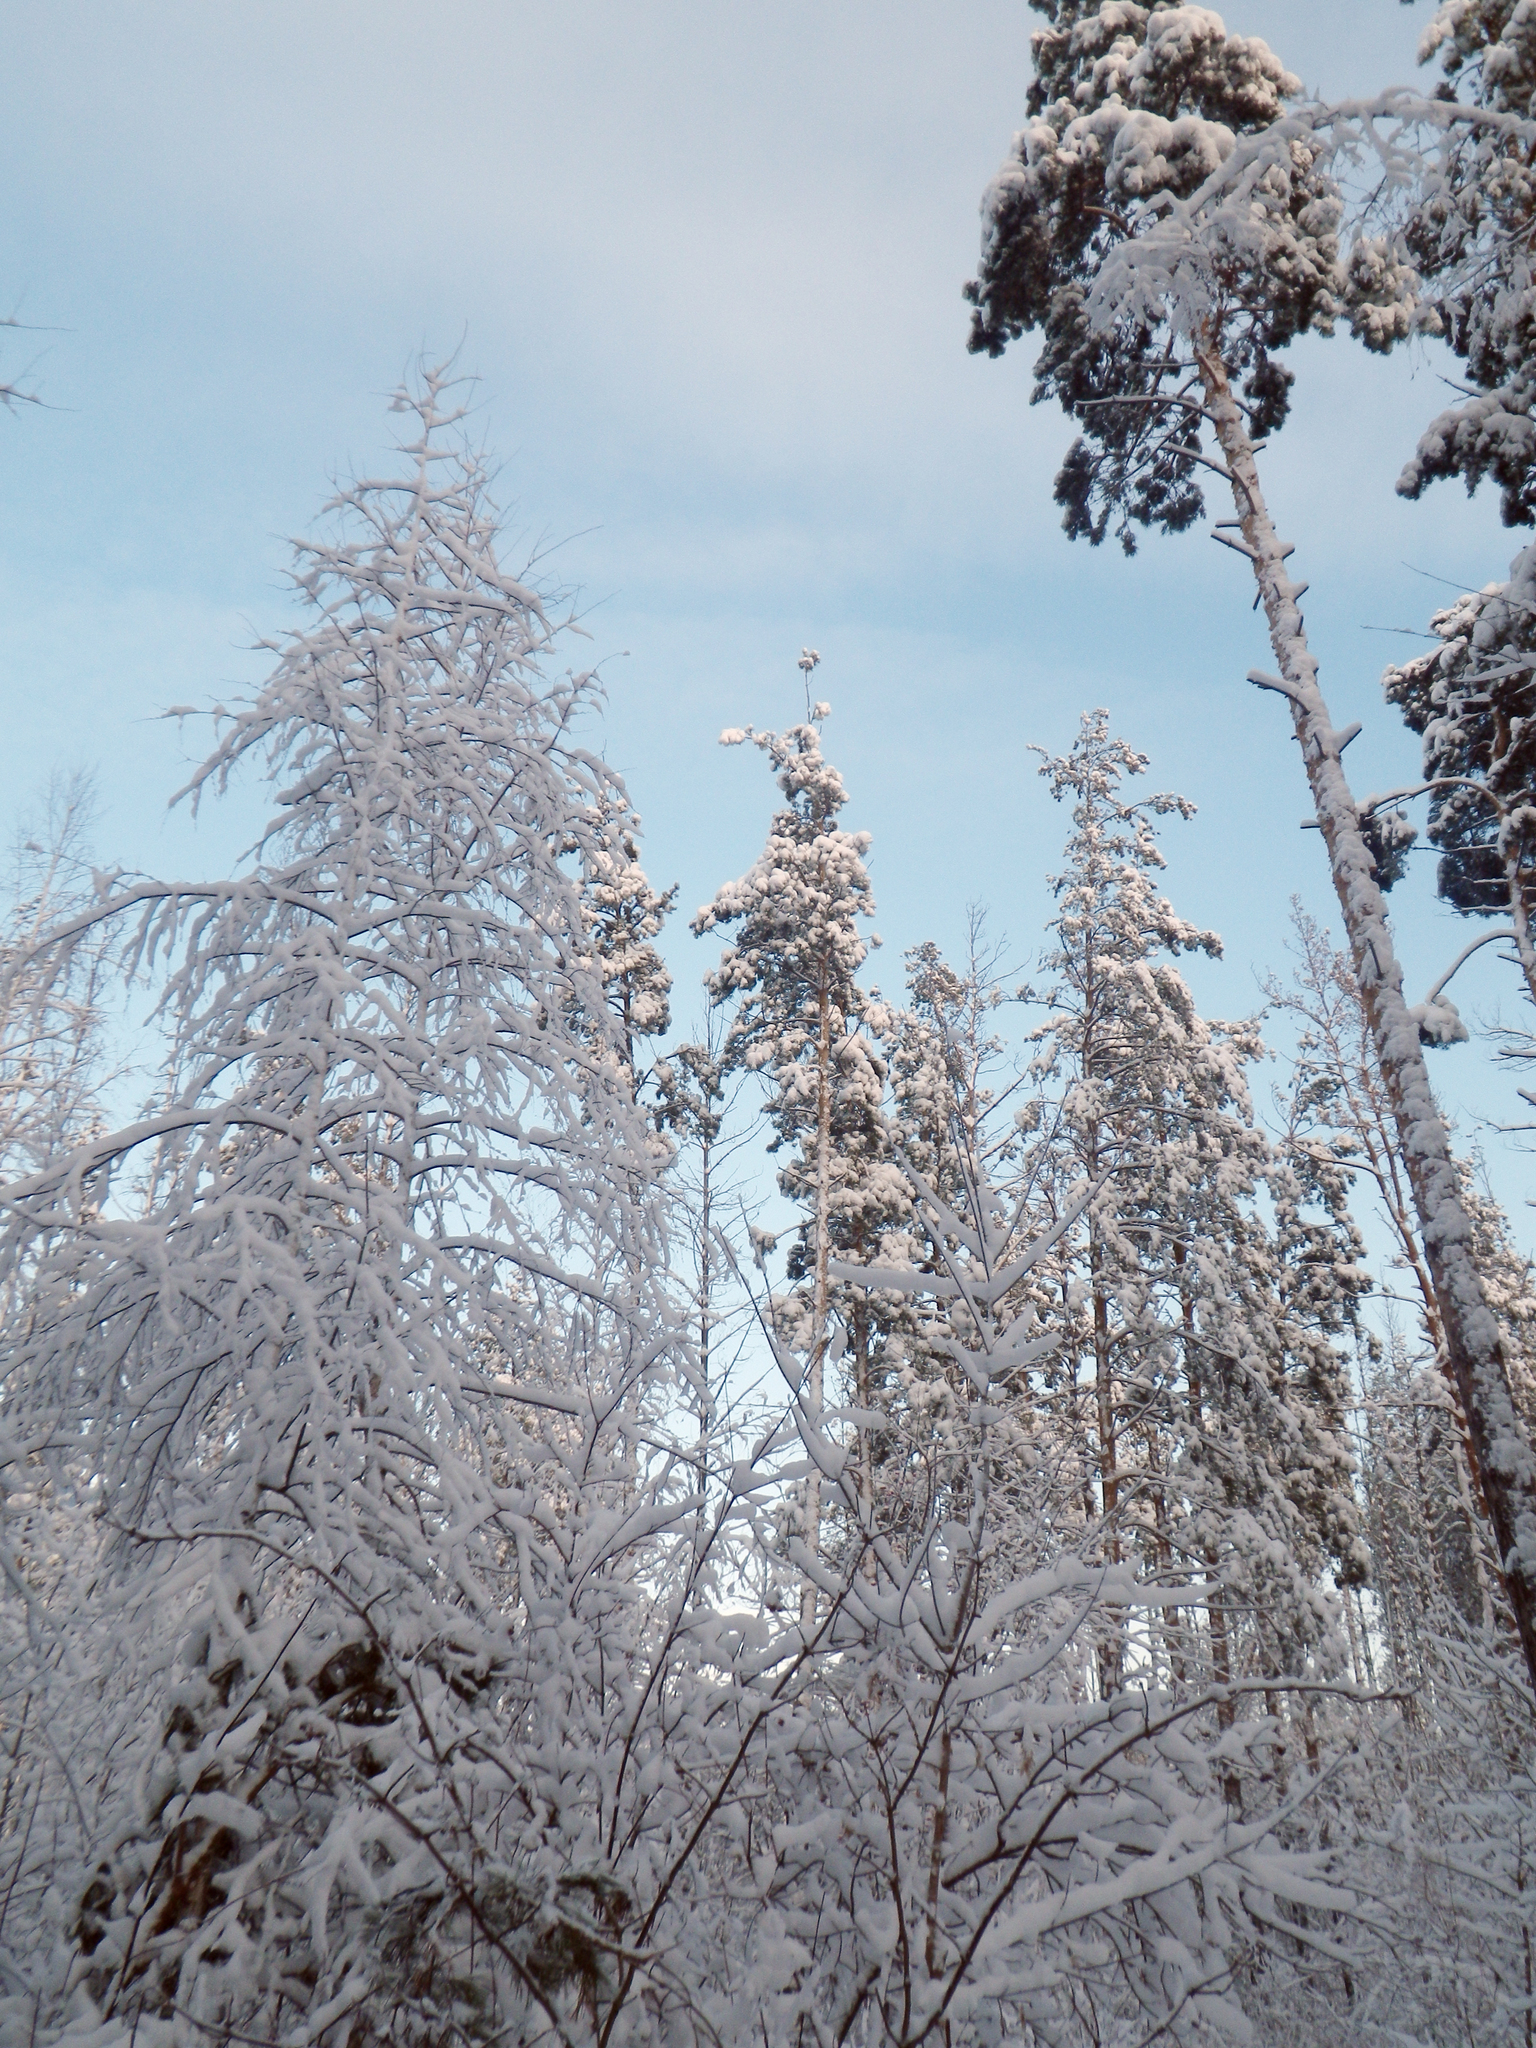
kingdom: Plantae
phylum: Tracheophyta
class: Pinopsida
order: Pinales
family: Pinaceae
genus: Pinus
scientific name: Pinus sylvestris
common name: Scots pine
